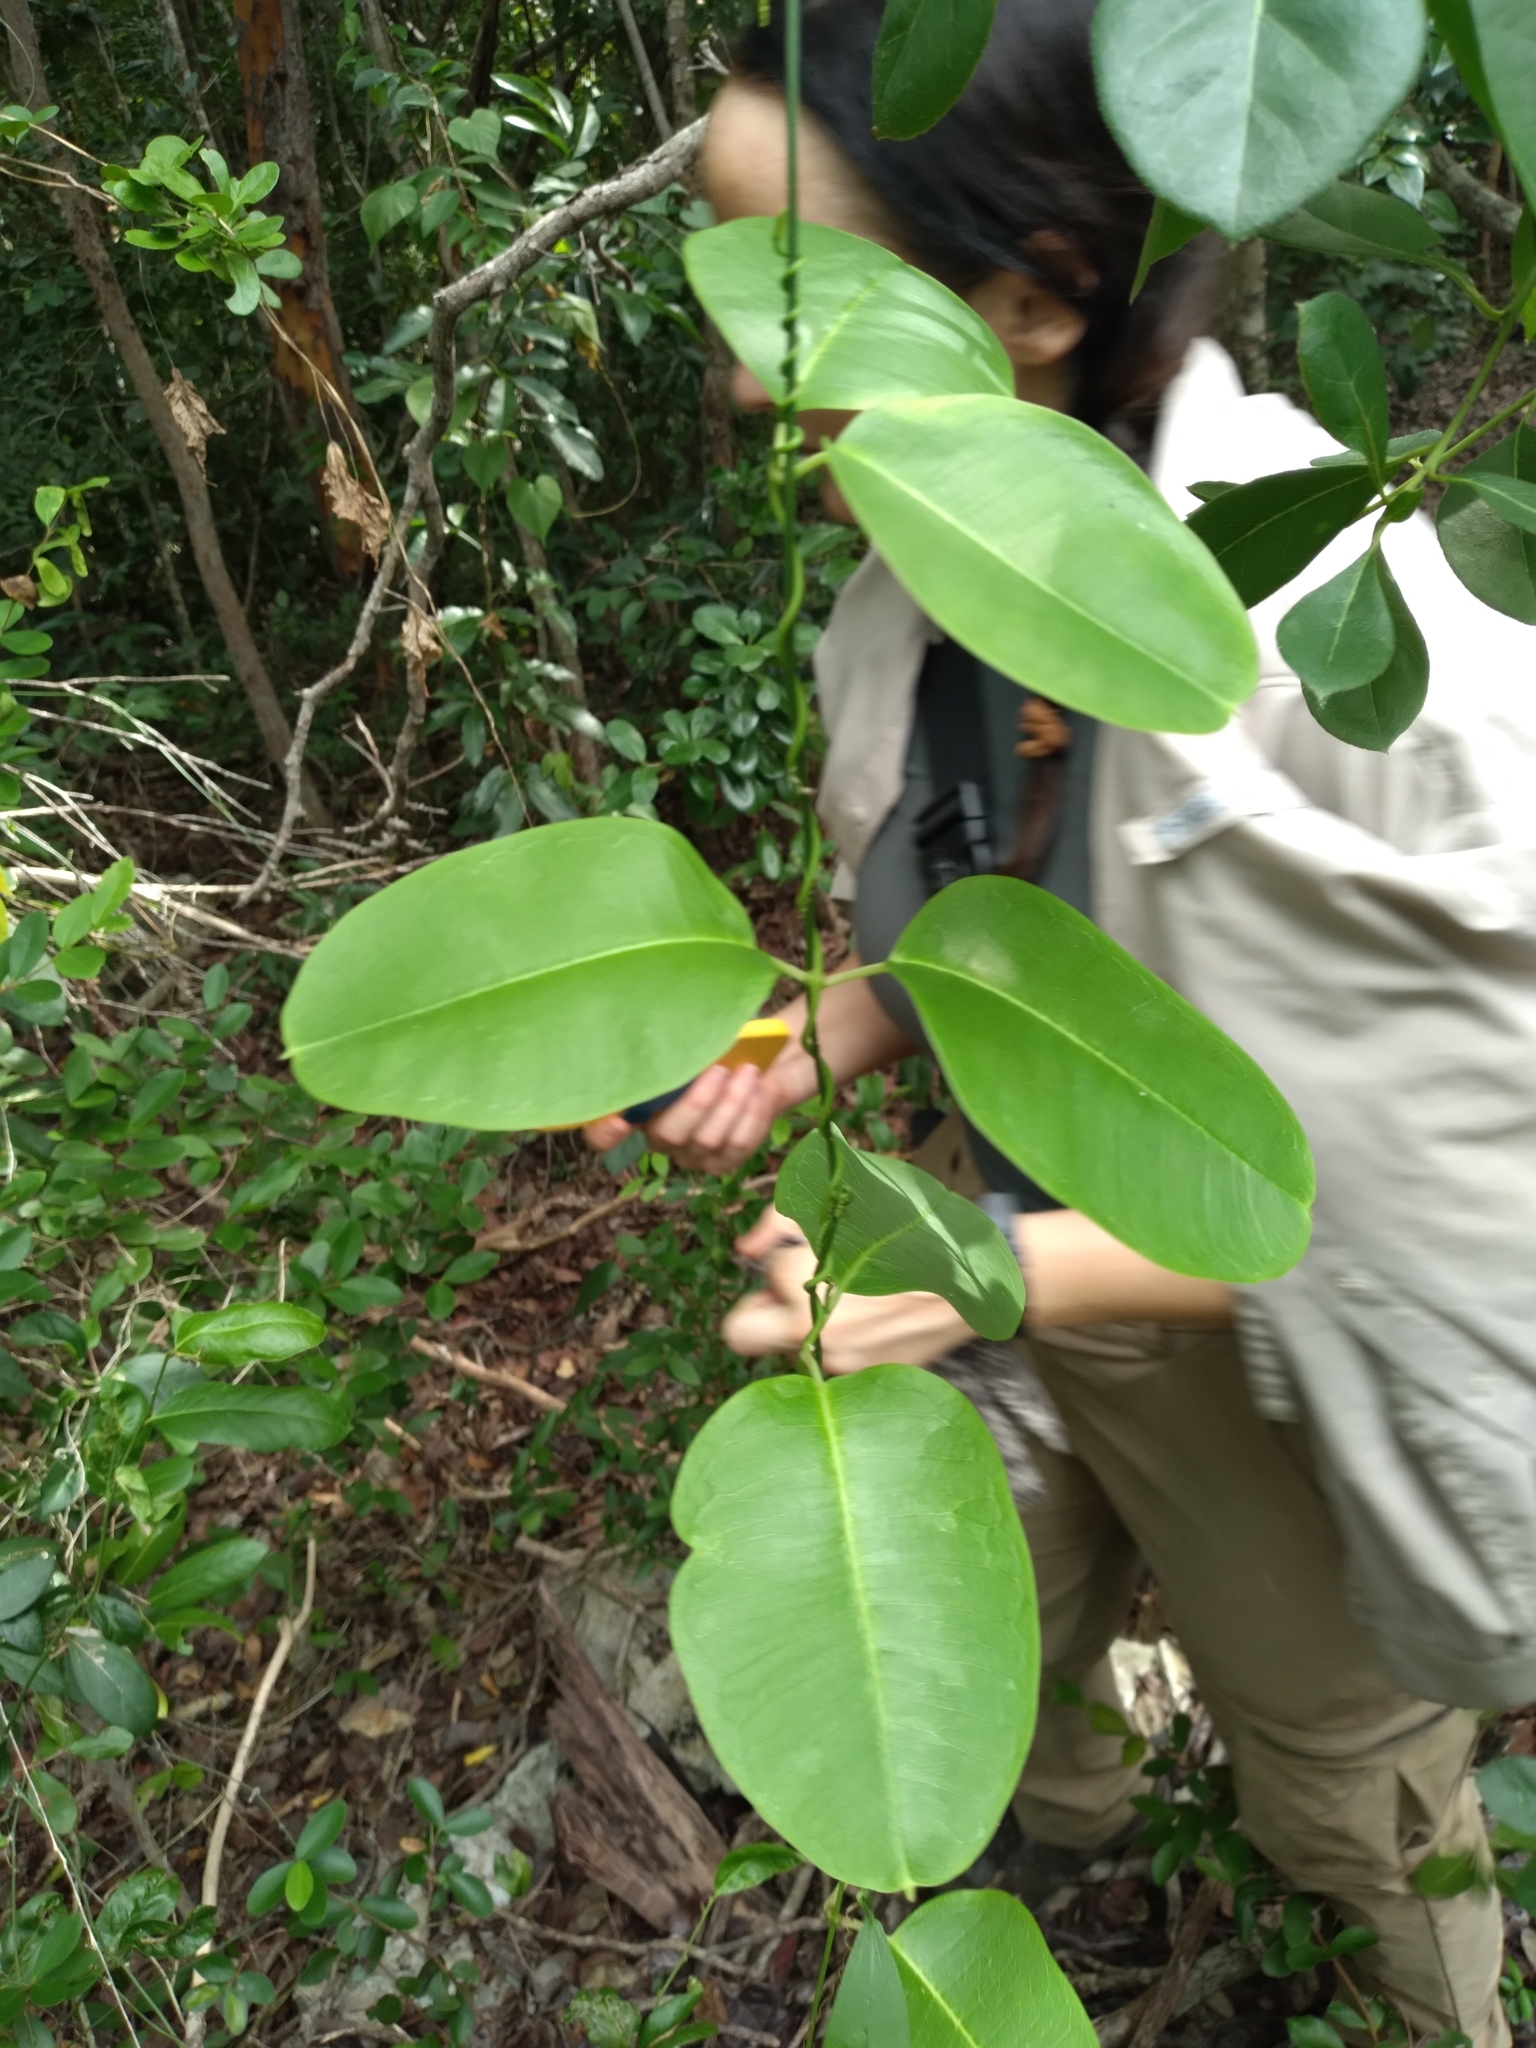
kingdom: Plantae
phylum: Tracheophyta
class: Magnoliopsida
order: Gentianales
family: Apocynaceae
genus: Echites
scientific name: Echites umbellatus
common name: Devil's potato
